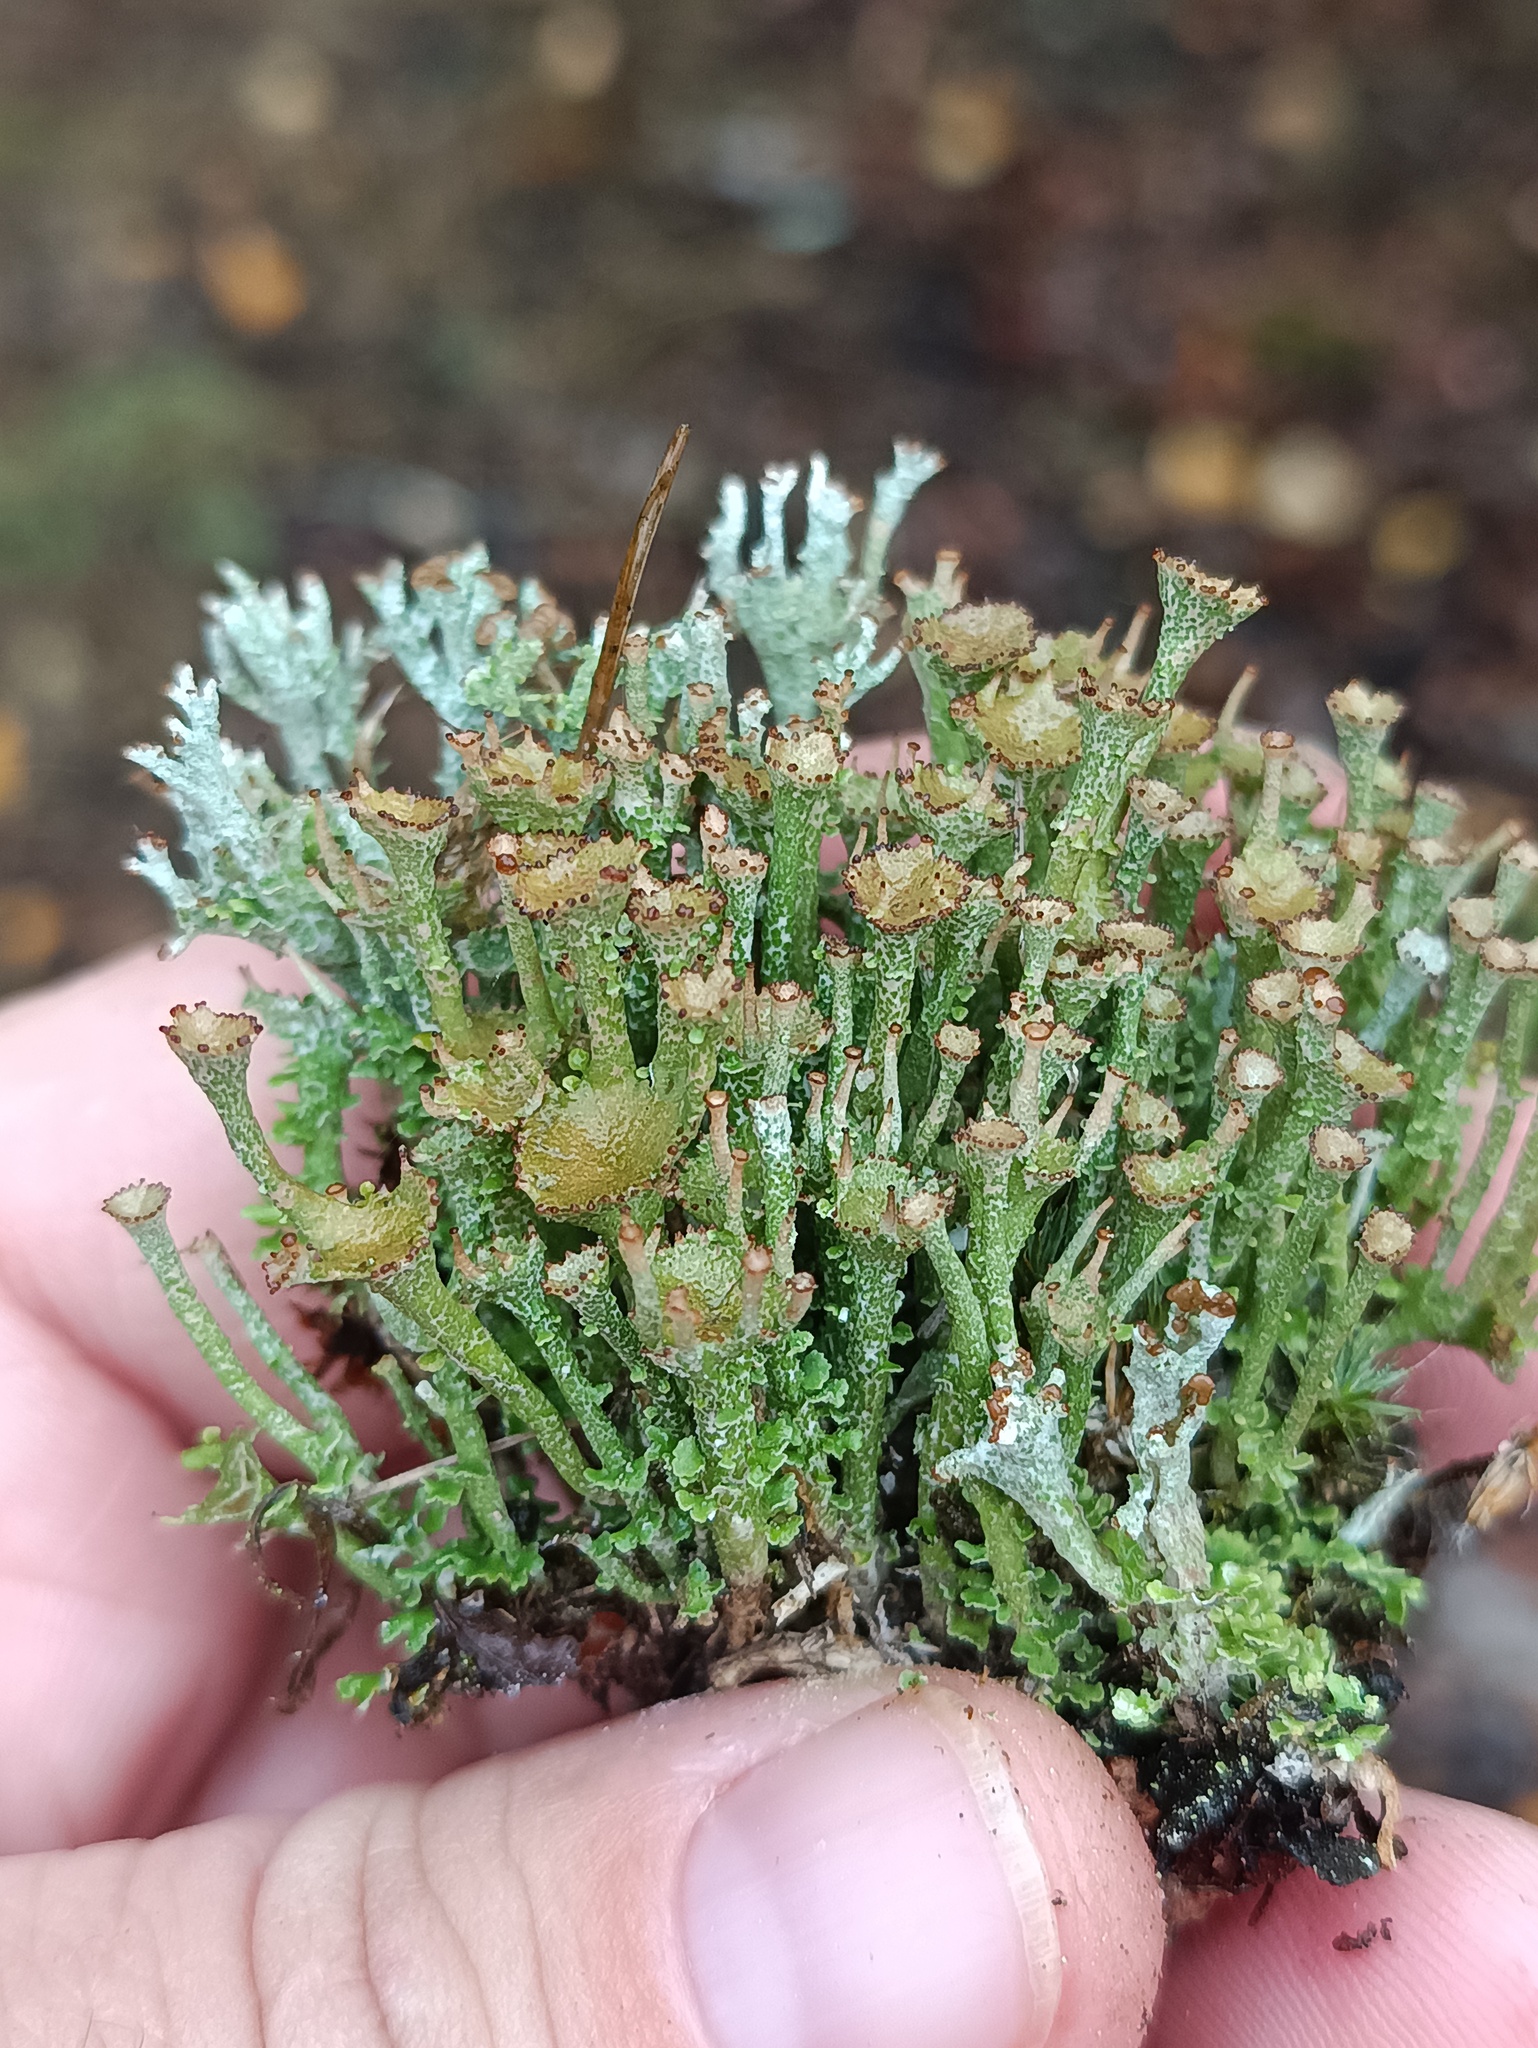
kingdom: Fungi
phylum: Ascomycota
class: Lecanoromycetes
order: Lecanorales
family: Cladoniaceae
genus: Cladonia
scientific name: Cladonia gracilis
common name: Smooth clad lichen
